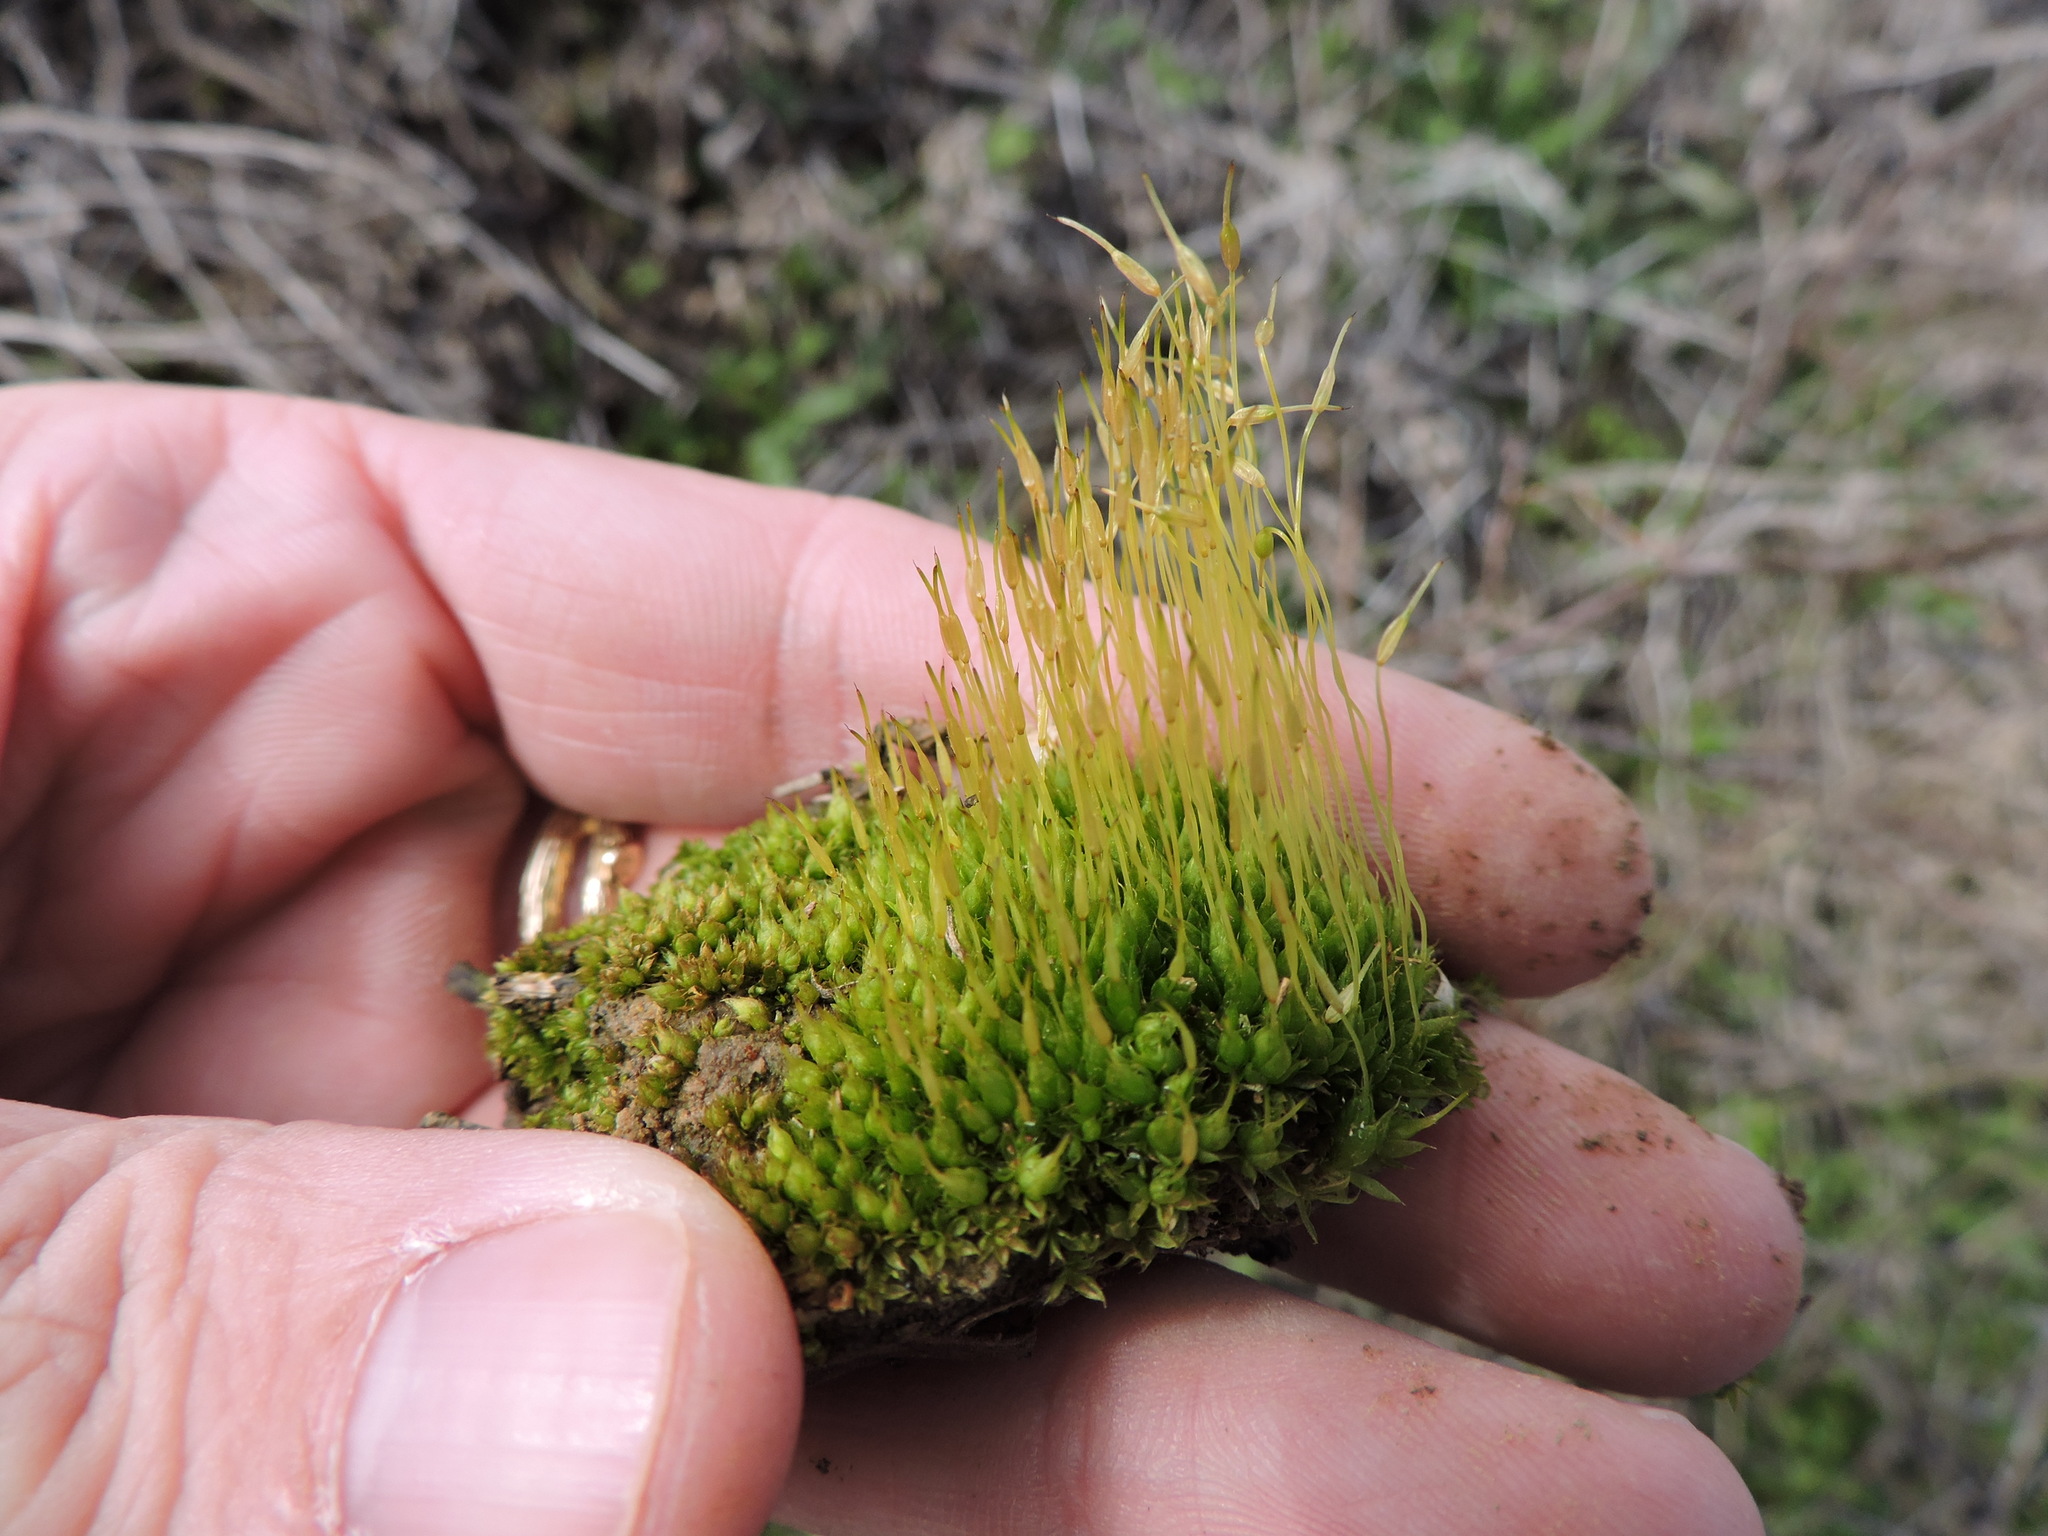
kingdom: Plantae
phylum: Bryophyta
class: Bryopsida
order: Funariales
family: Funariaceae
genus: Funaria
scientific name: Funaria hygrometrica
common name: Common cord moss
